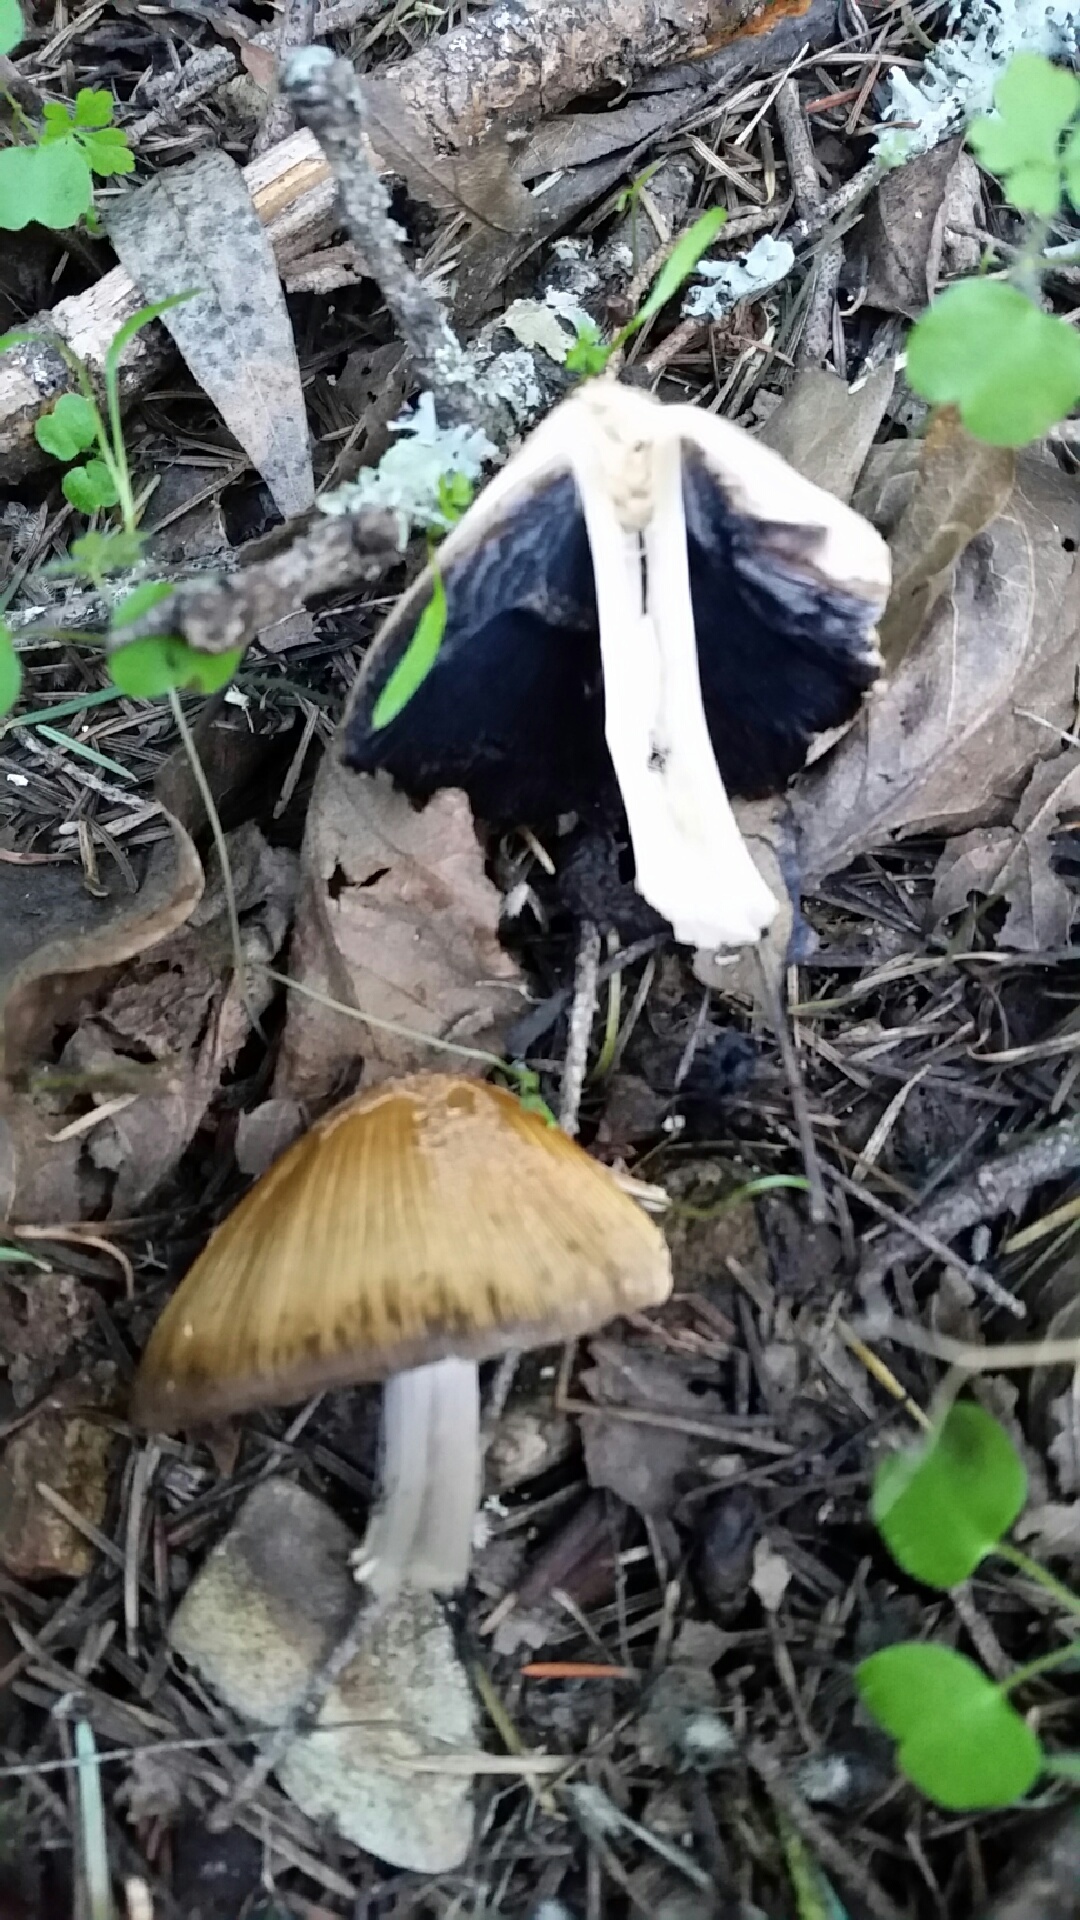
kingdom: Fungi
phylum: Basidiomycota
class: Agaricomycetes
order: Agaricales
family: Psathyrellaceae
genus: Coprinellus
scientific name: Coprinellus flocculosus
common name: Flocculose inkcap
